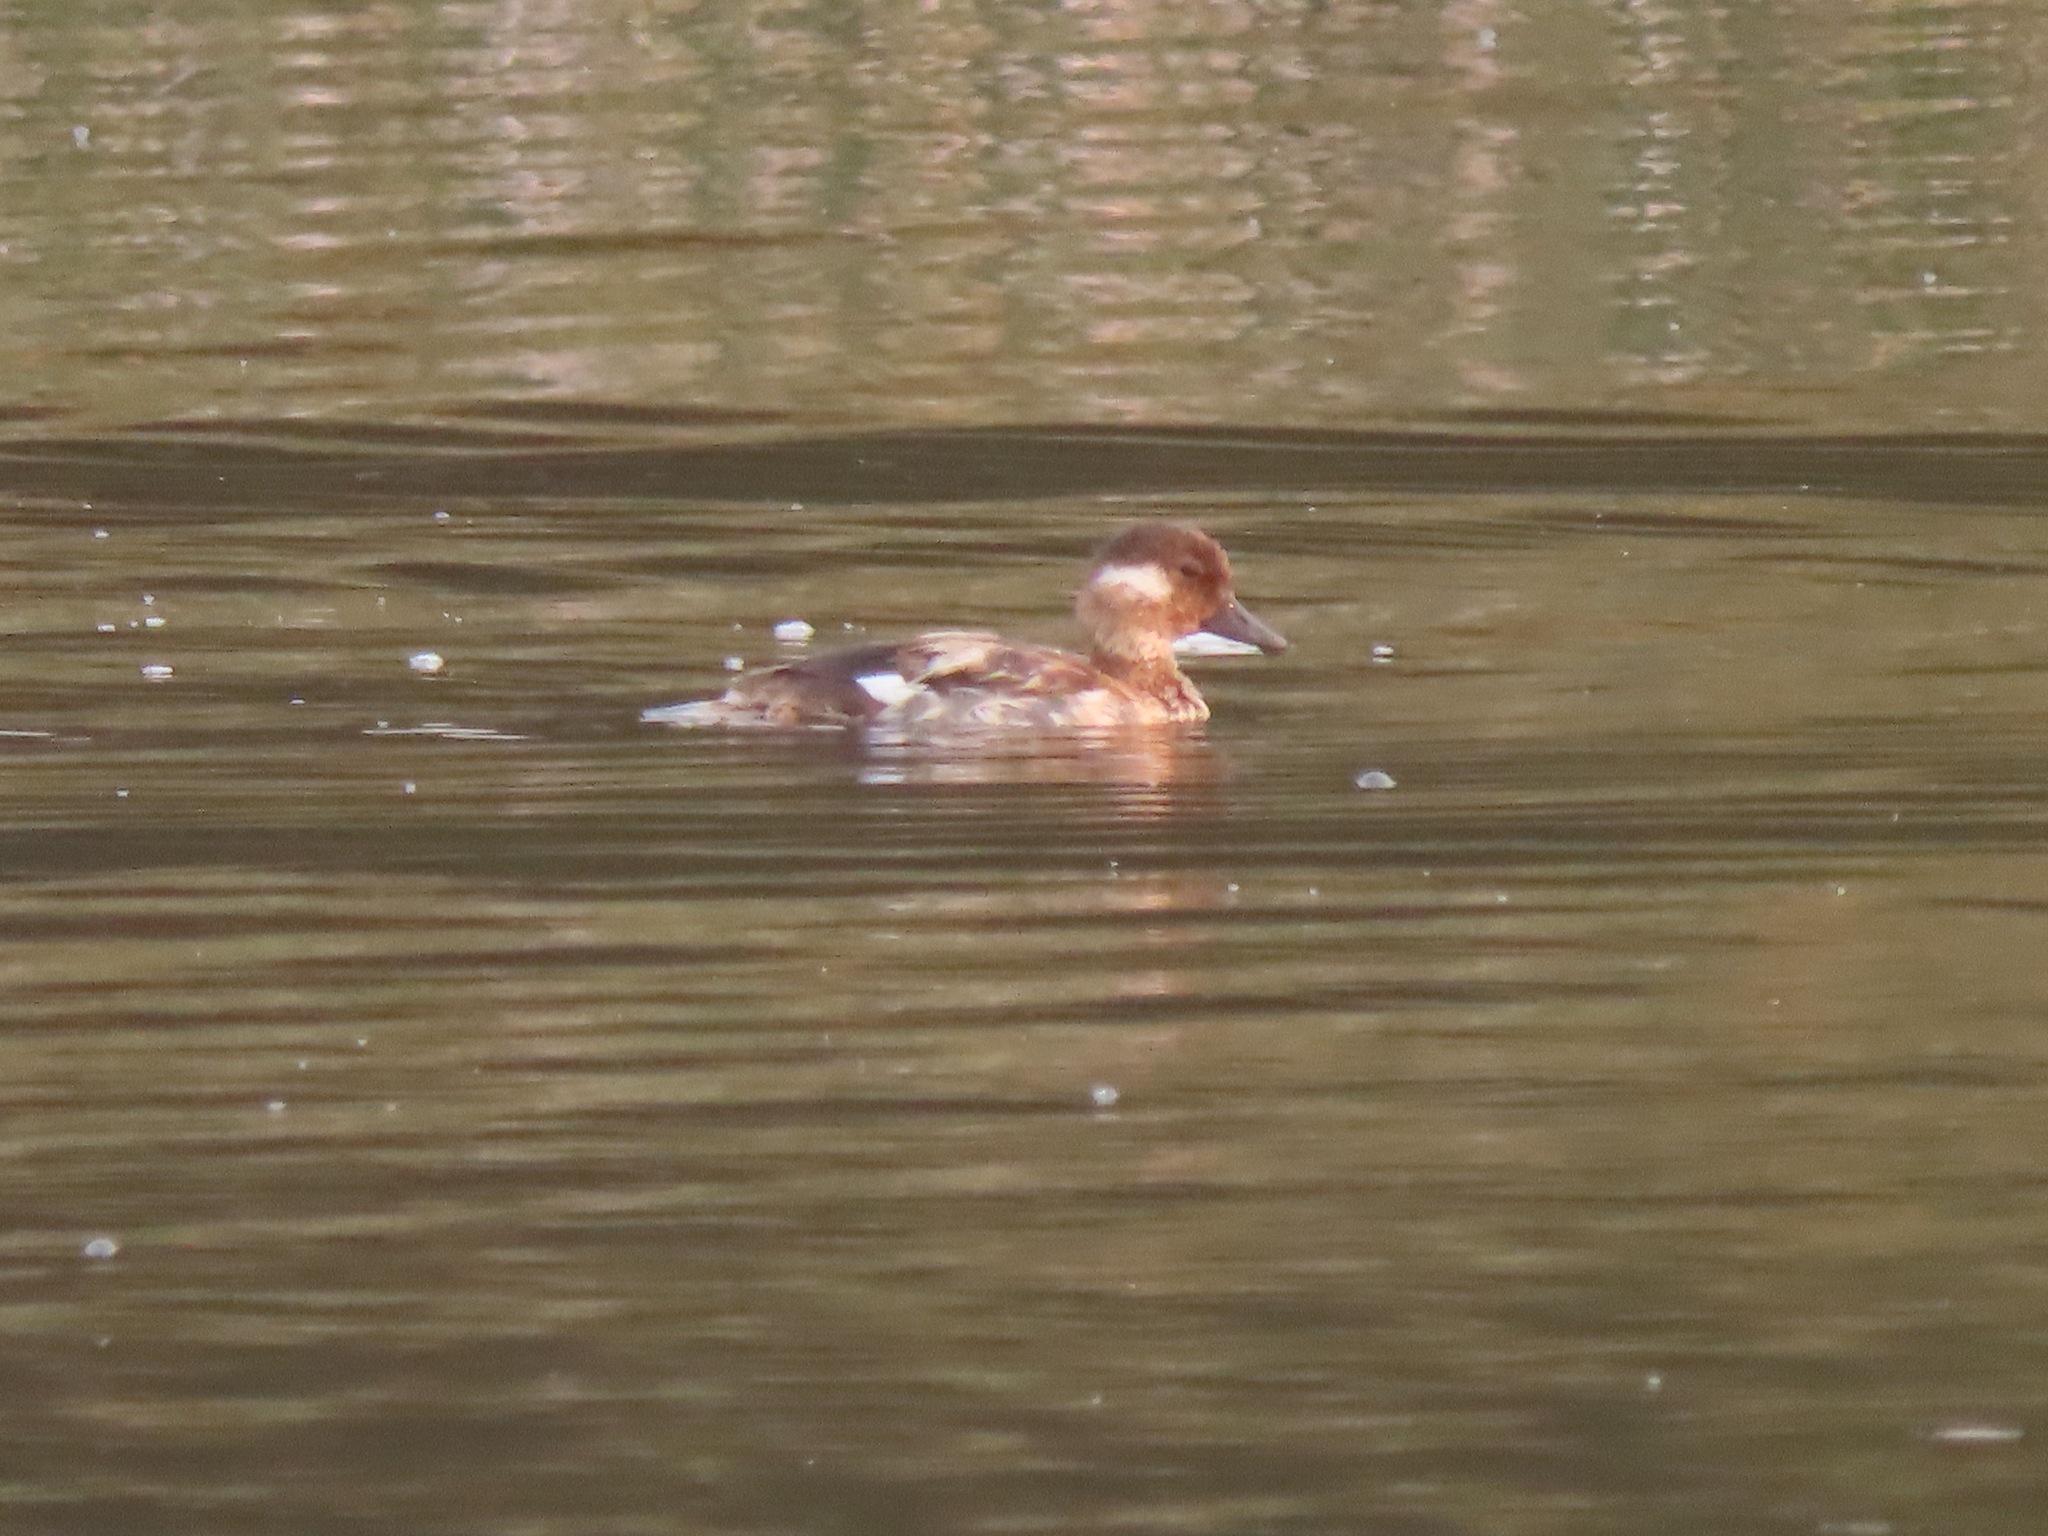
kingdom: Animalia
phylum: Chordata
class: Aves
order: Anseriformes
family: Anatidae
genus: Bucephala
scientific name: Bucephala albeola
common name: Bufflehead
